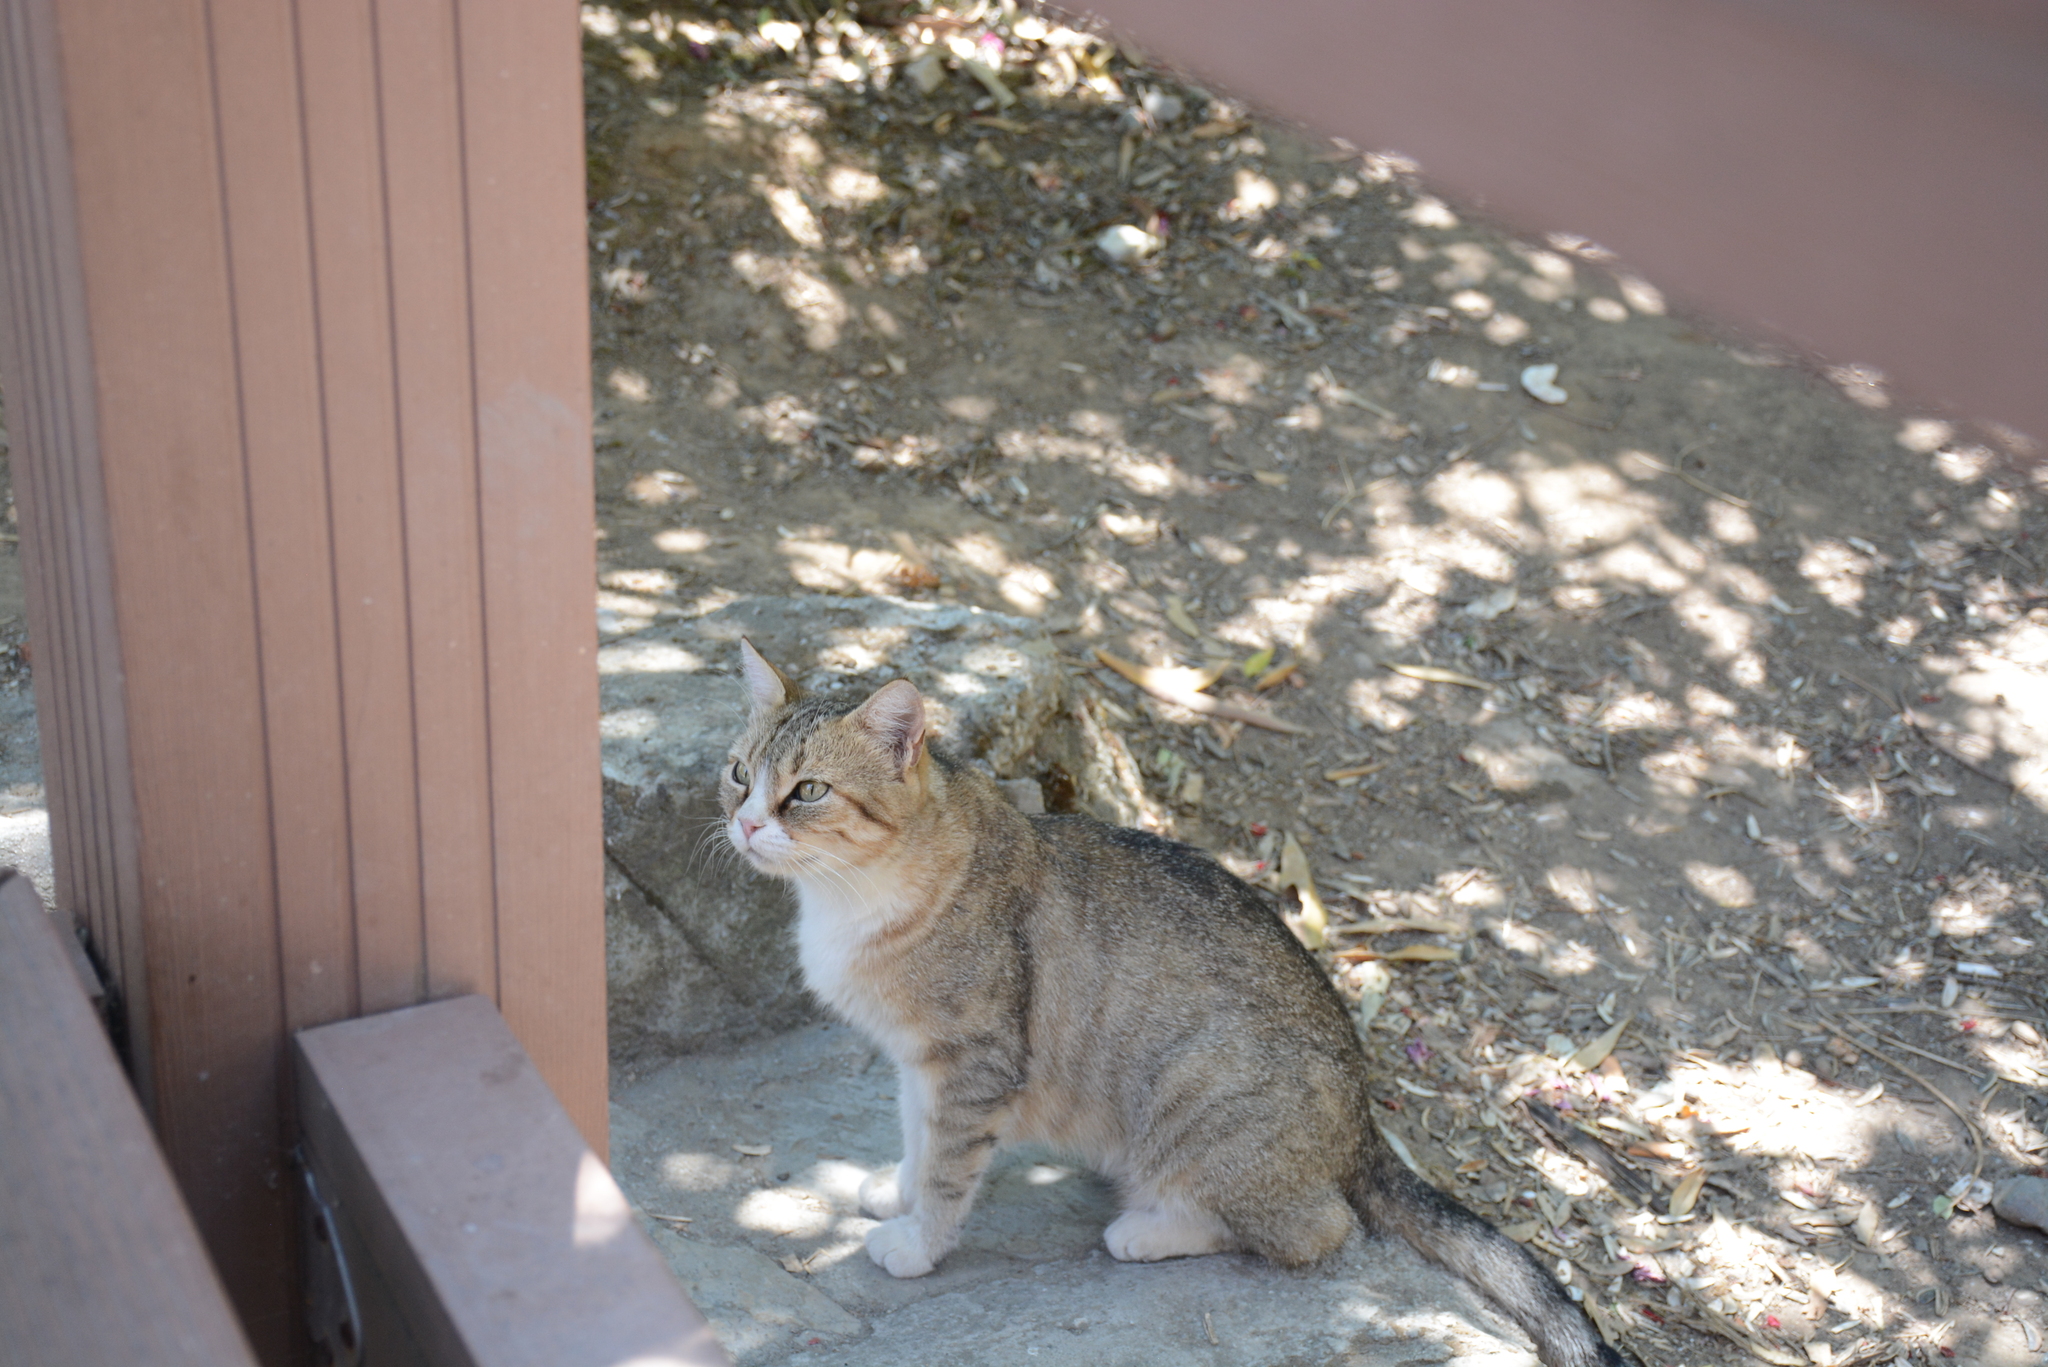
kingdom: Animalia
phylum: Chordata
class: Mammalia
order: Carnivora
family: Felidae
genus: Felis
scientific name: Felis catus
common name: Domestic cat
